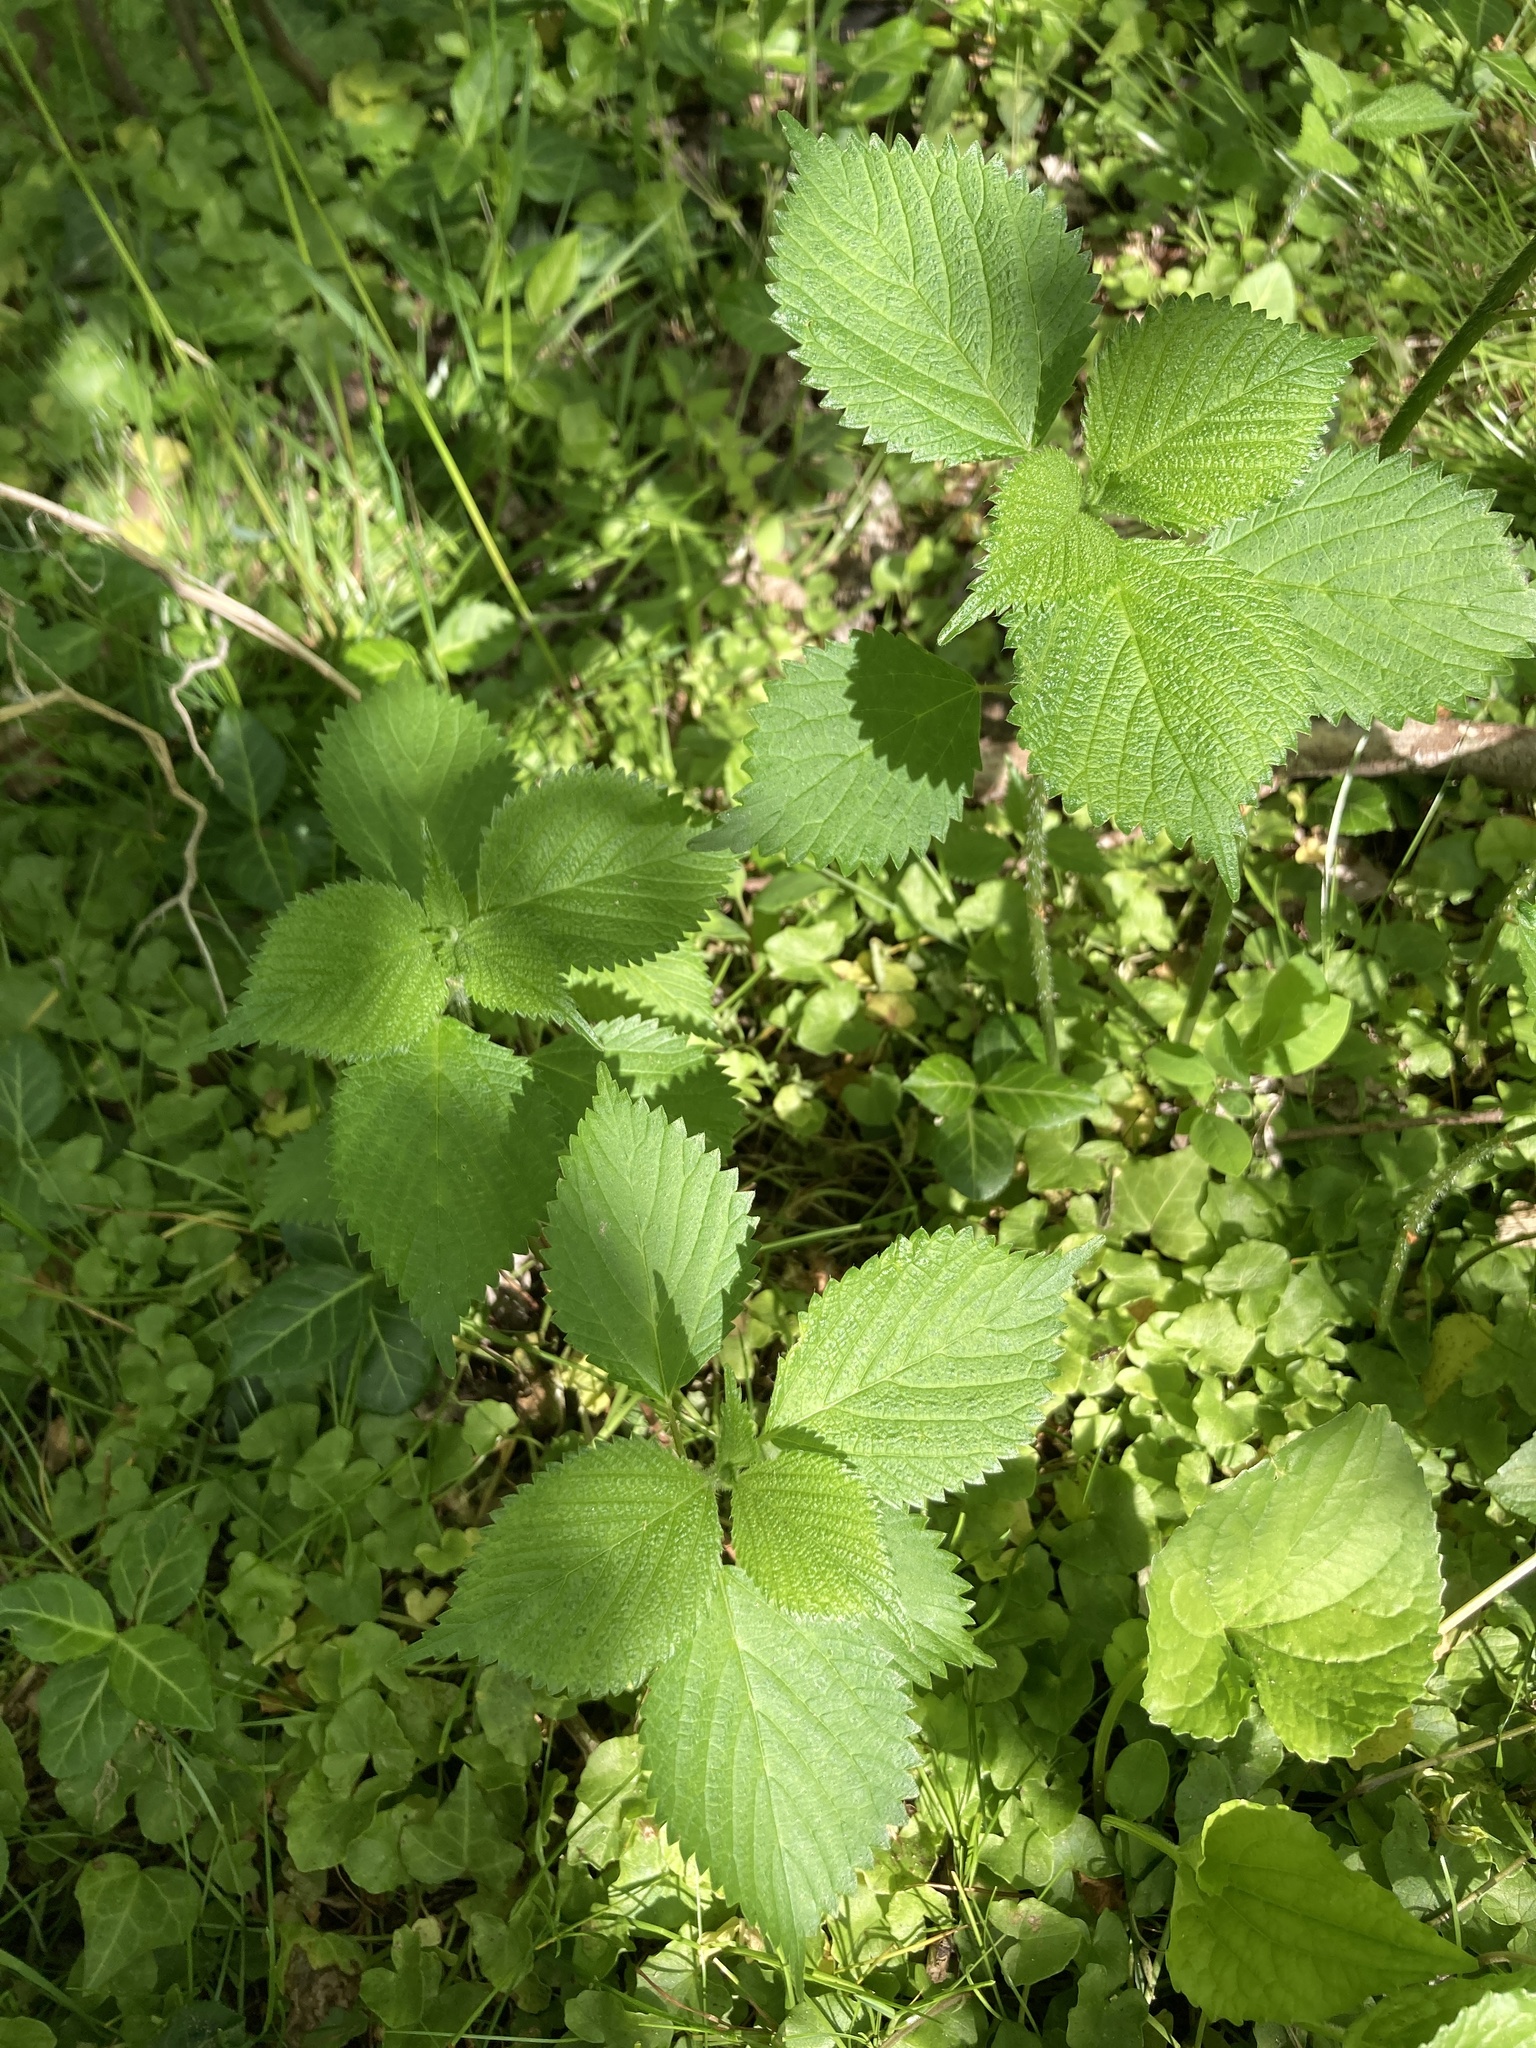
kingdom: Plantae
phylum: Tracheophyta
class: Magnoliopsida
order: Rosales
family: Urticaceae
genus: Laportea
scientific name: Laportea canadensis
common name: Canada nettle
